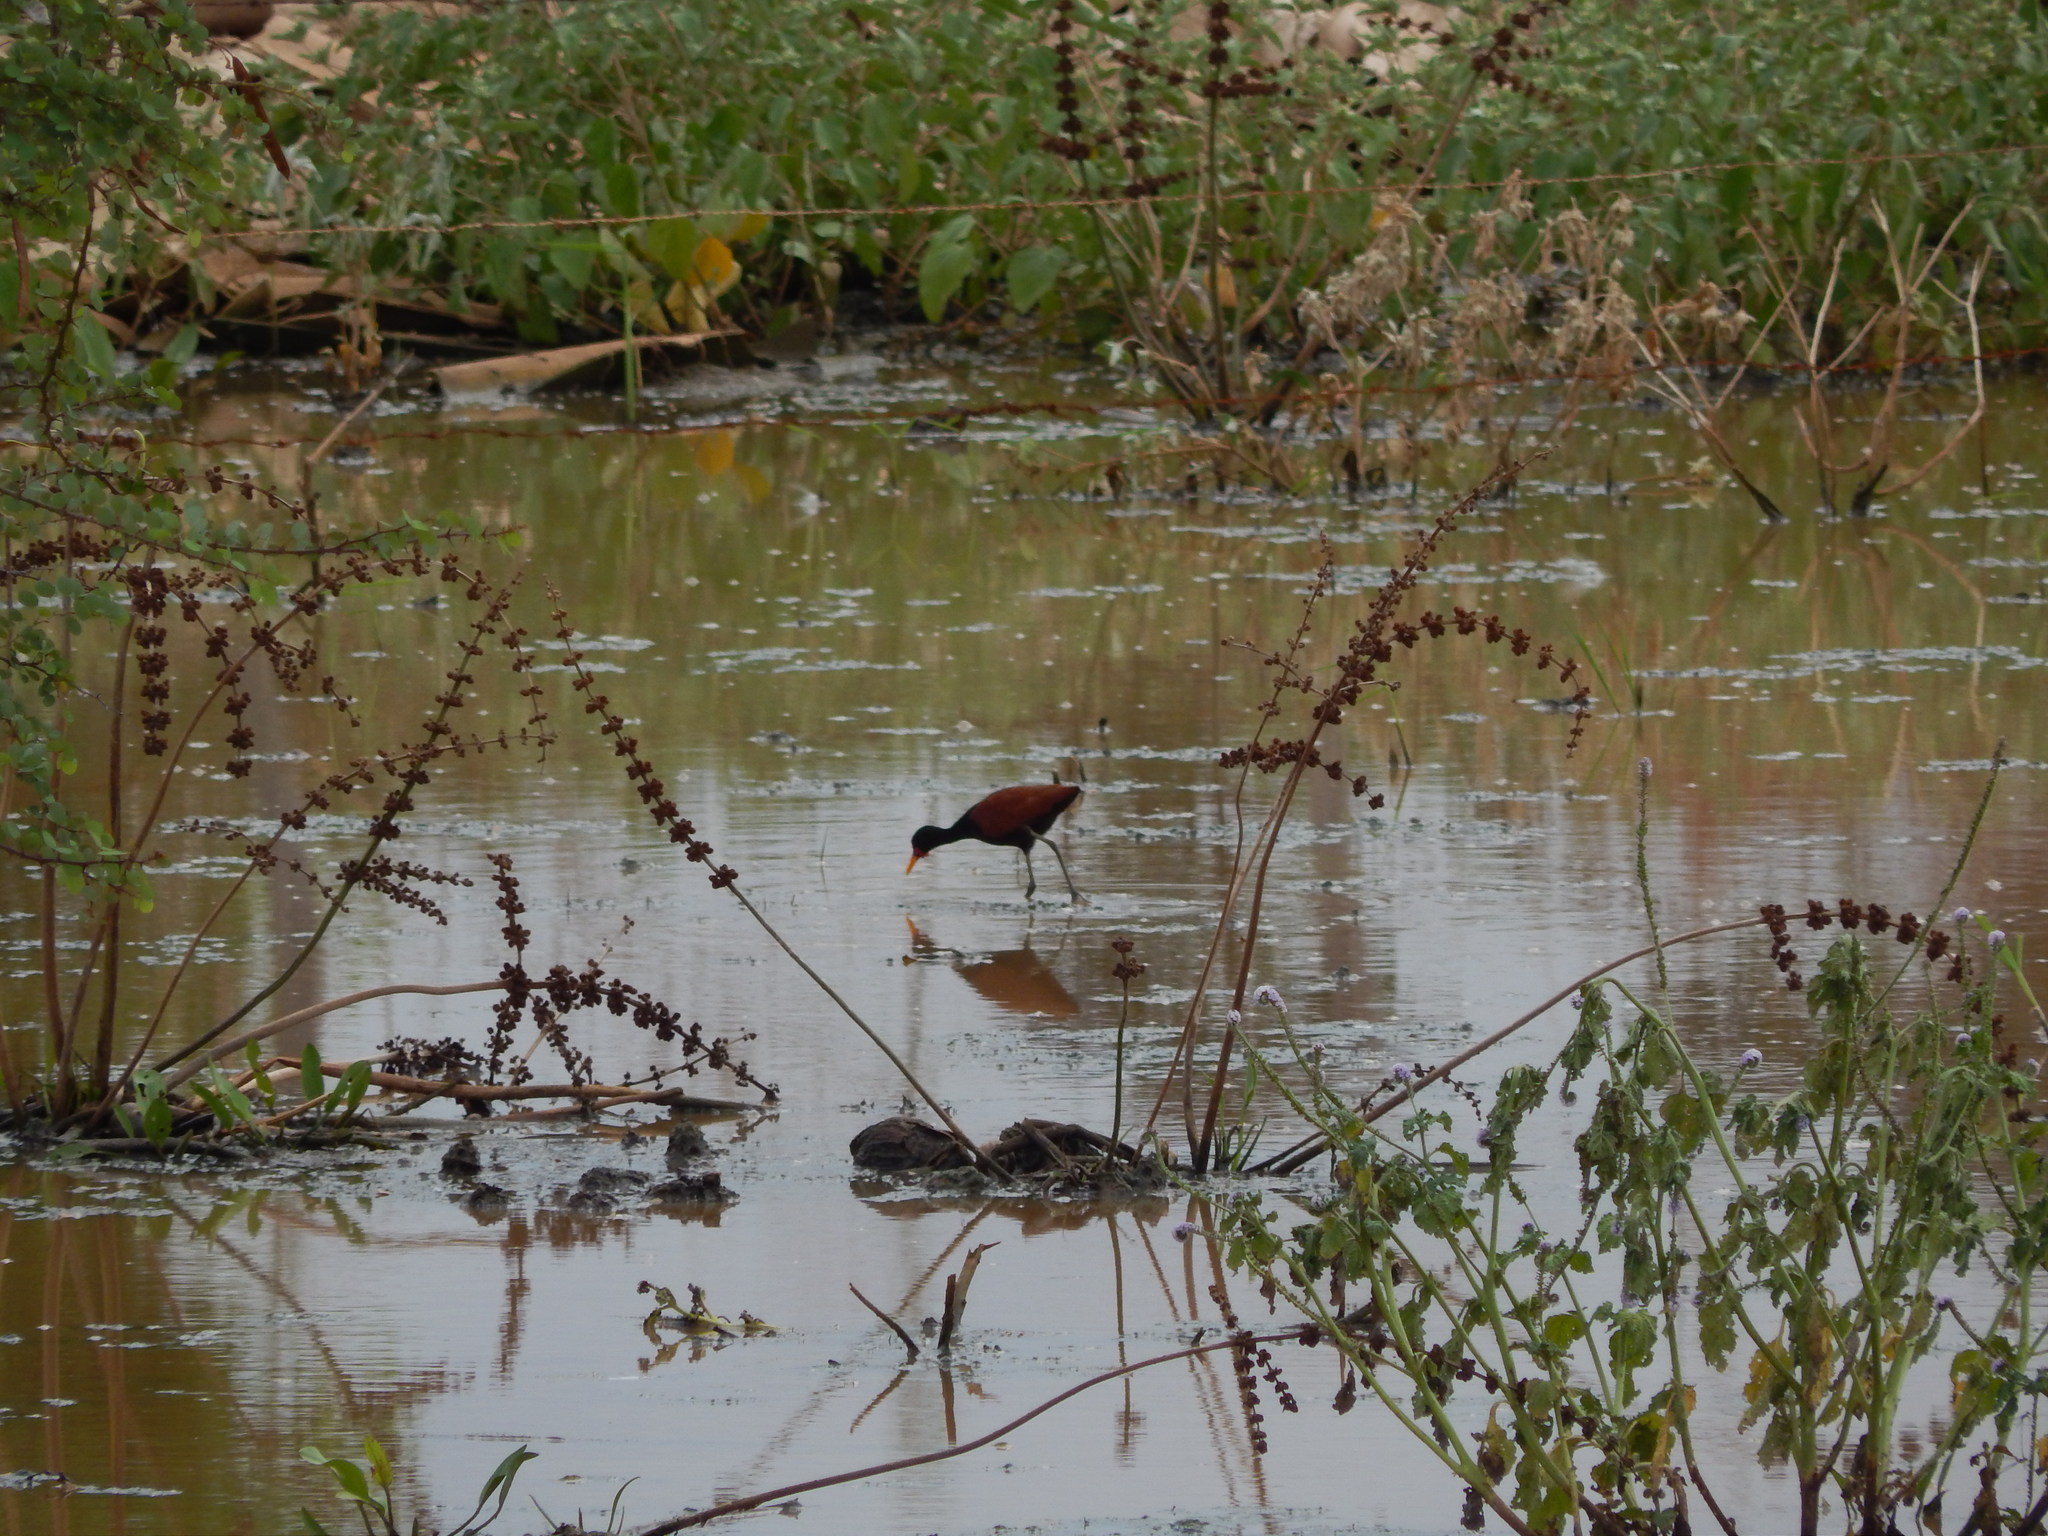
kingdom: Animalia
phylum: Chordata
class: Aves
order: Charadriiformes
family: Jacanidae
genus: Jacana
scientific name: Jacana jacana
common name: Wattled jacana
